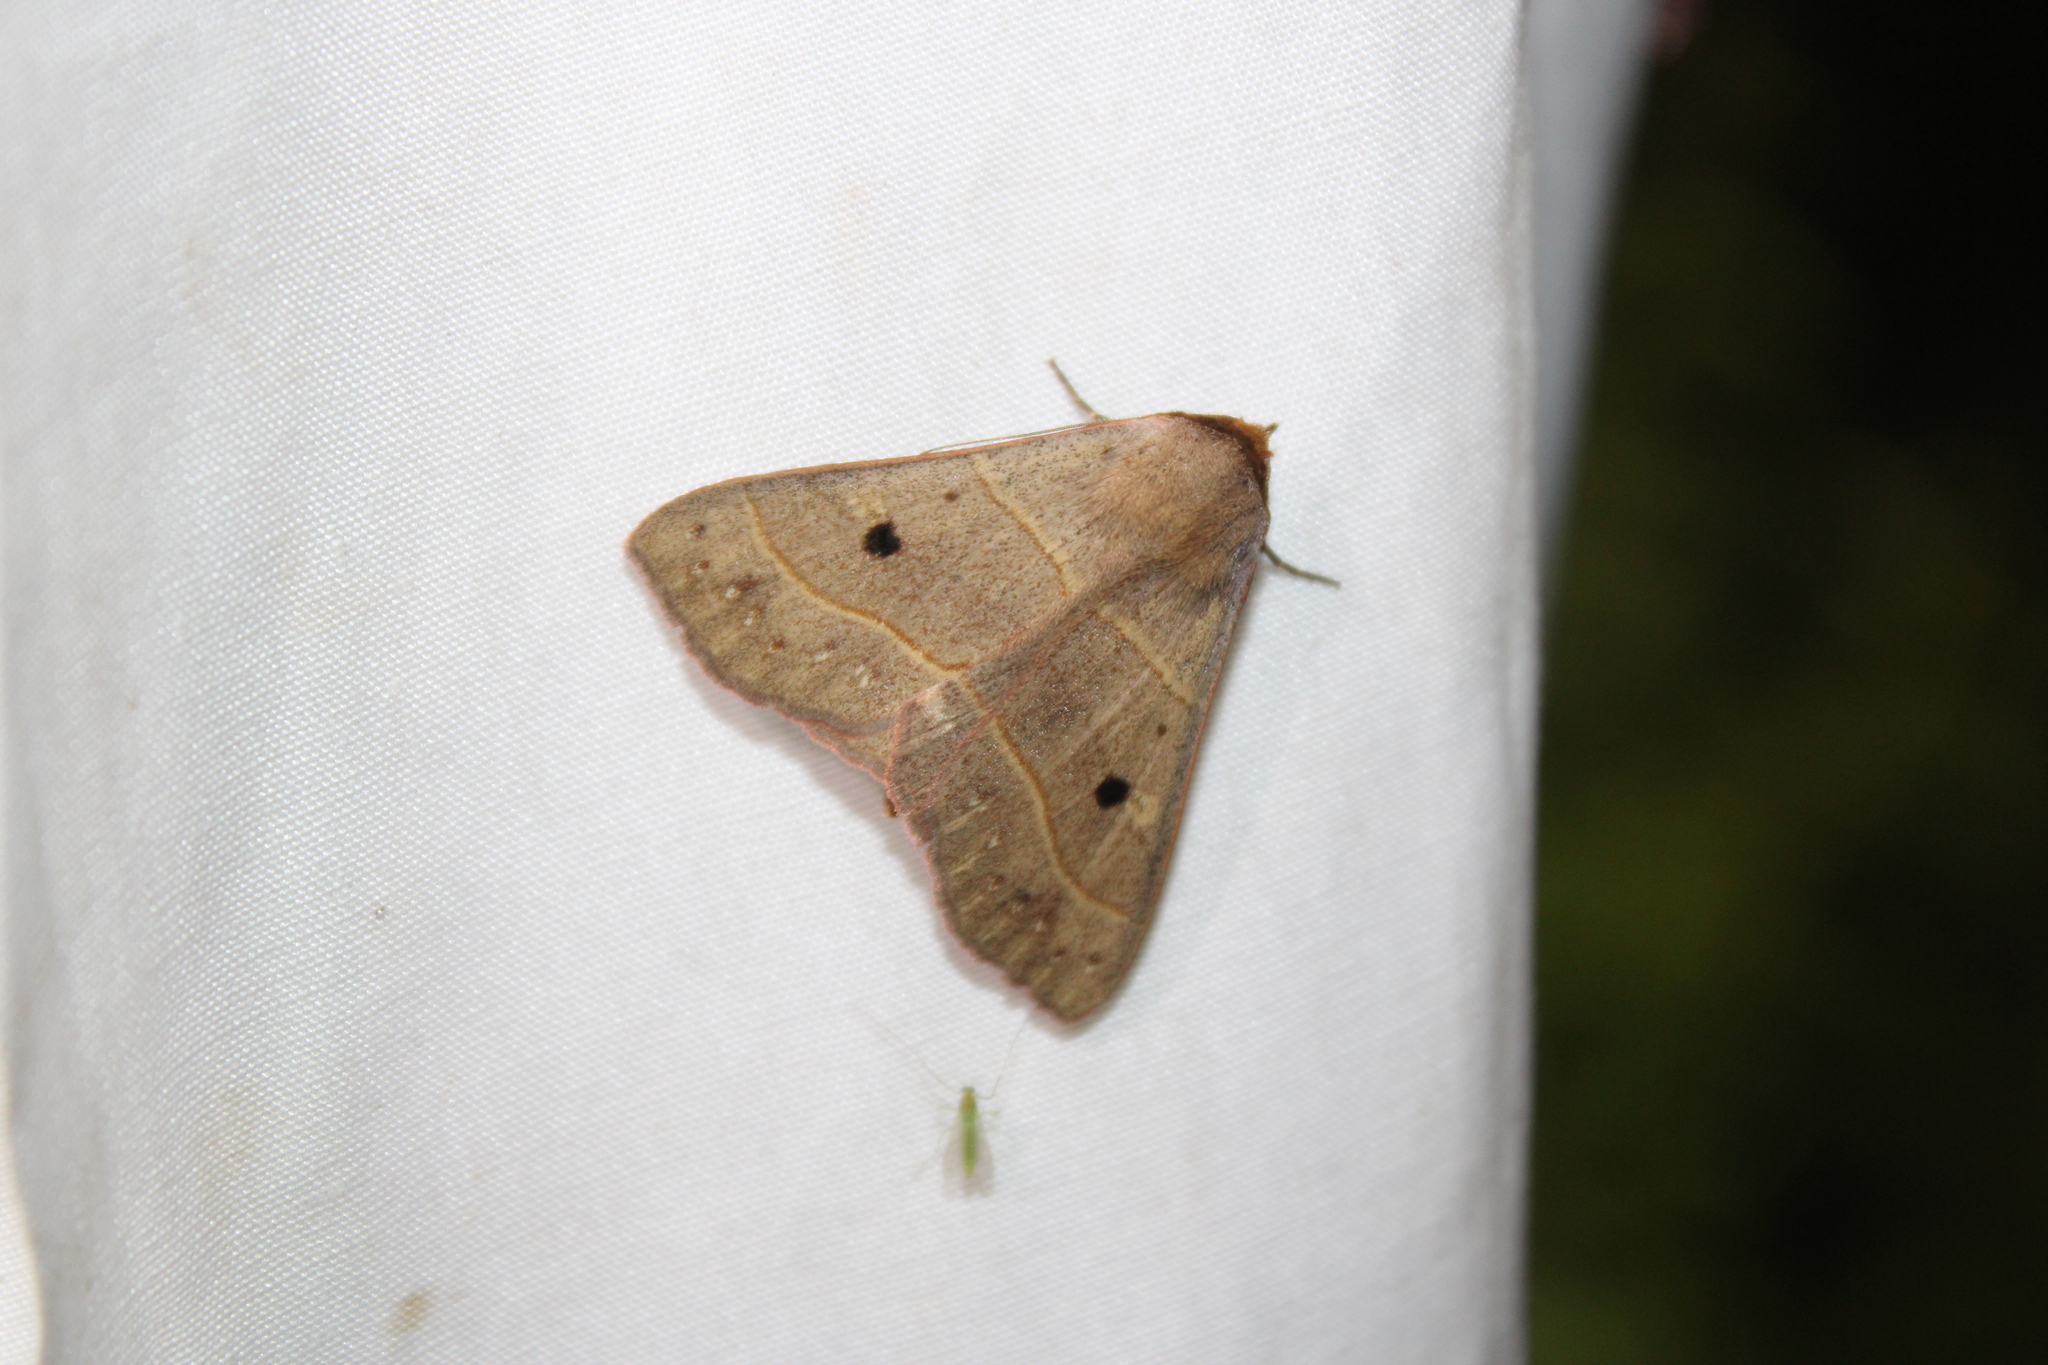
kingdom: Animalia
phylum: Arthropoda
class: Insecta
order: Lepidoptera
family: Erebidae
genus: Panopoda
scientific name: Panopoda rufimargo
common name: Red-lined panopoda moth
